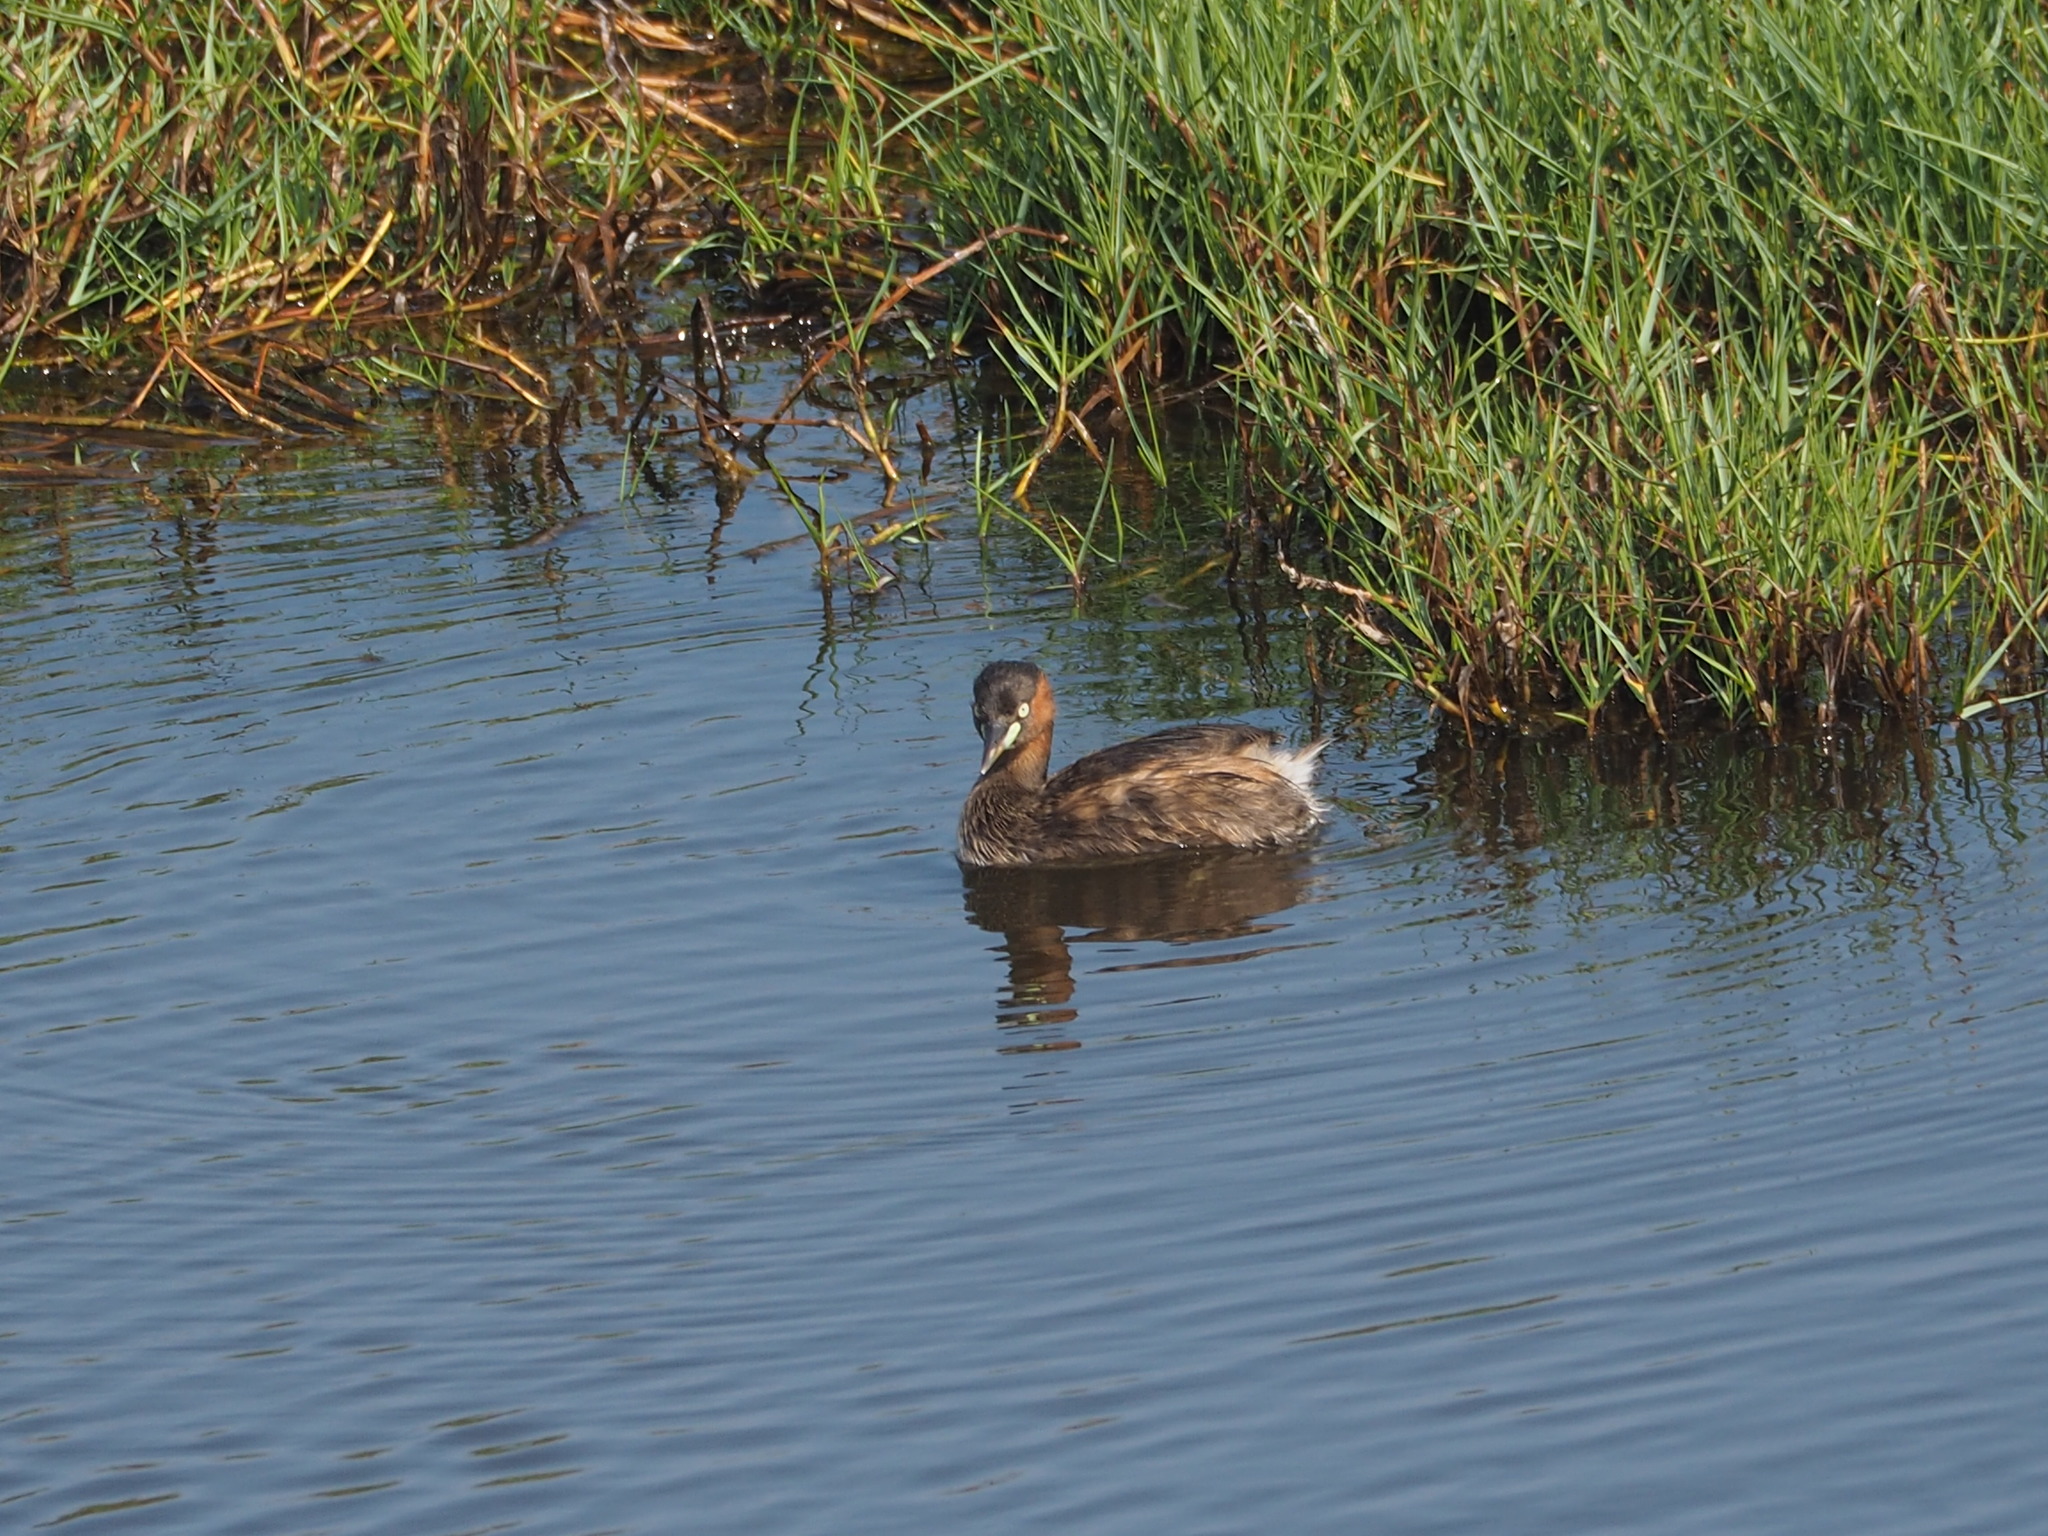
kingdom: Animalia
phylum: Chordata
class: Aves
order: Podicipediformes
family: Podicipedidae
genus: Tachybaptus
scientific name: Tachybaptus ruficollis
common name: Little grebe
